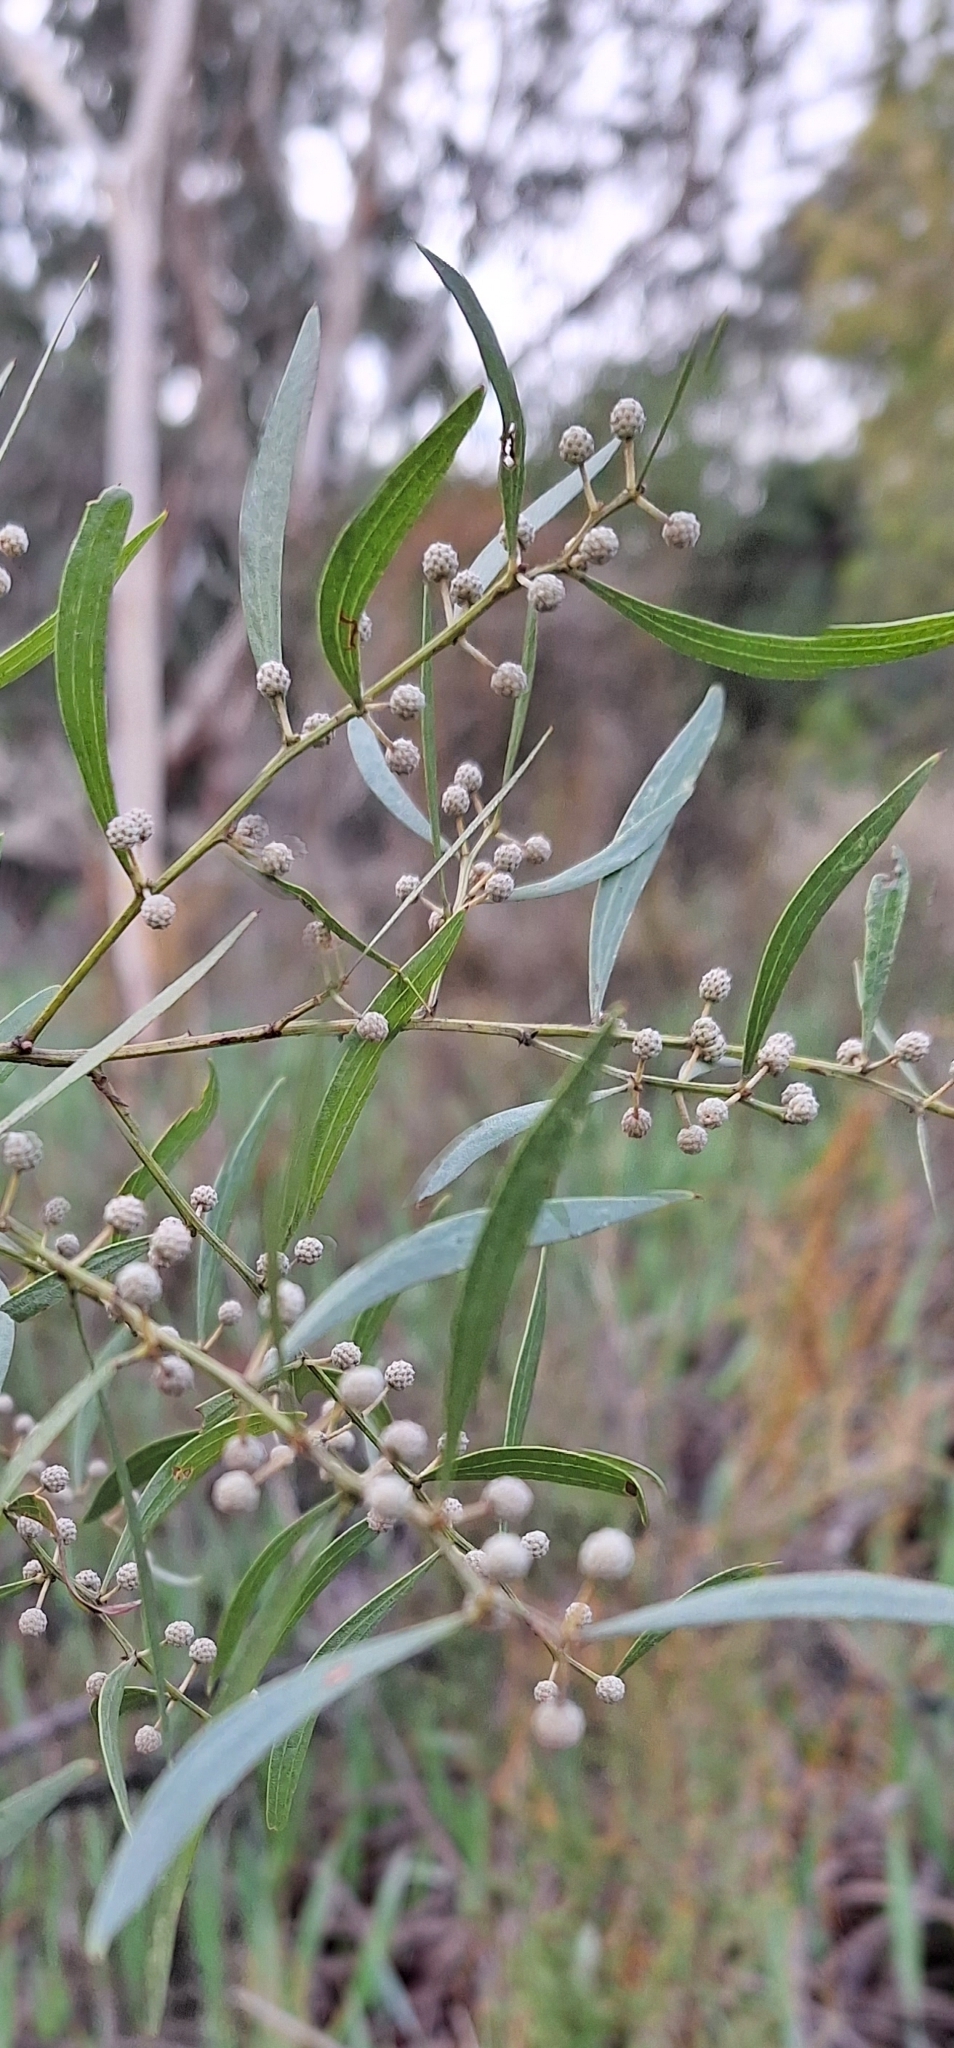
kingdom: Plantae
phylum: Tracheophyta
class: Magnoliopsida
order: Fabales
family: Fabaceae
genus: Acacia
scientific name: Acacia verniciflua
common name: Varnish wattle
